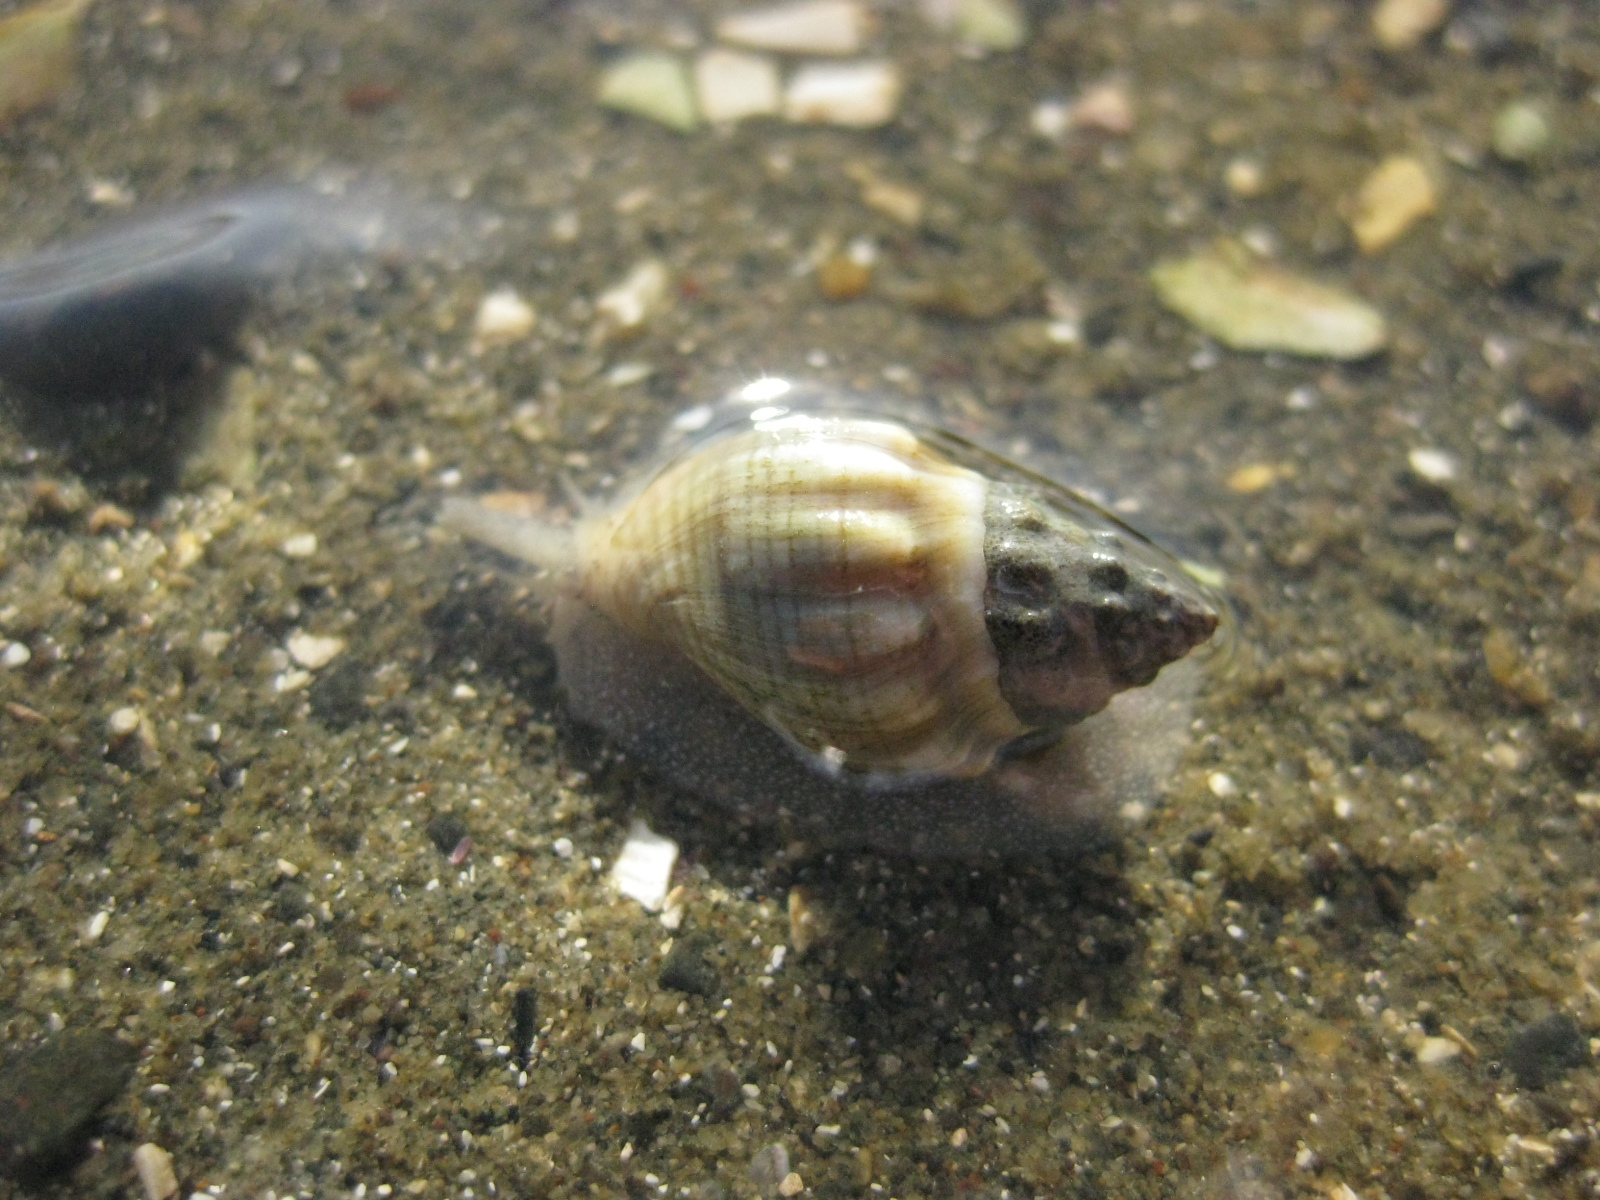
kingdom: Animalia
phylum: Mollusca
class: Gastropoda
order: Neogastropoda
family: Cominellidae
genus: Cominella
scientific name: Cominella glandiformis
